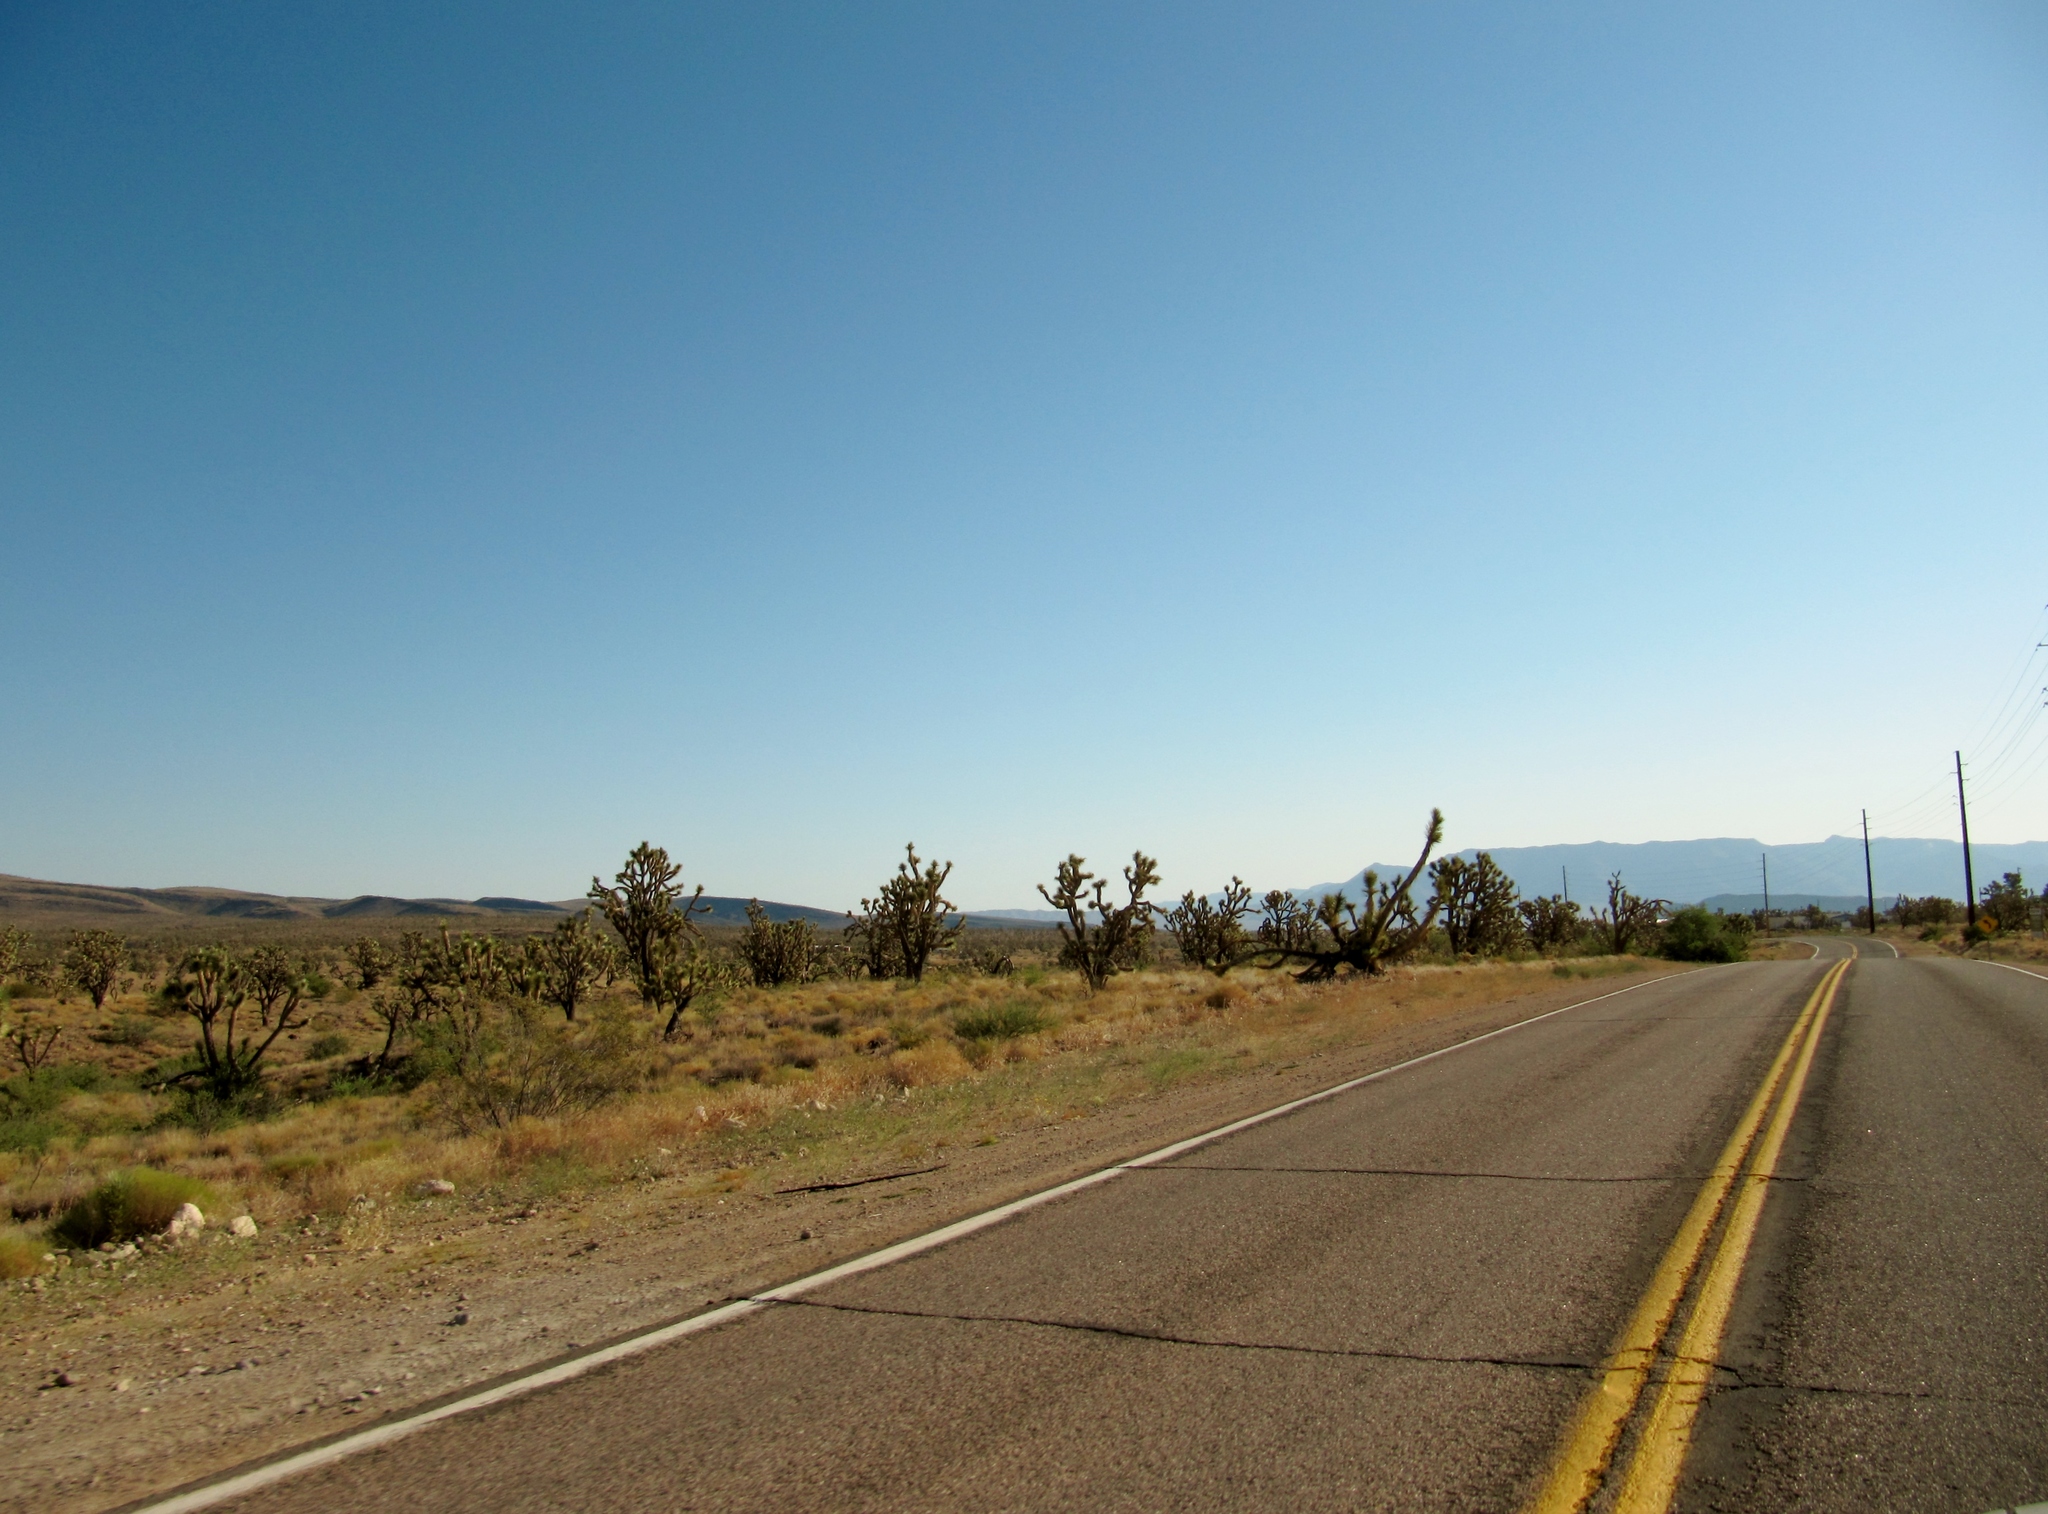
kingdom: Plantae
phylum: Tracheophyta
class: Liliopsida
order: Asparagales
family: Asparagaceae
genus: Yucca
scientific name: Yucca brevifolia
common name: Joshua tree
